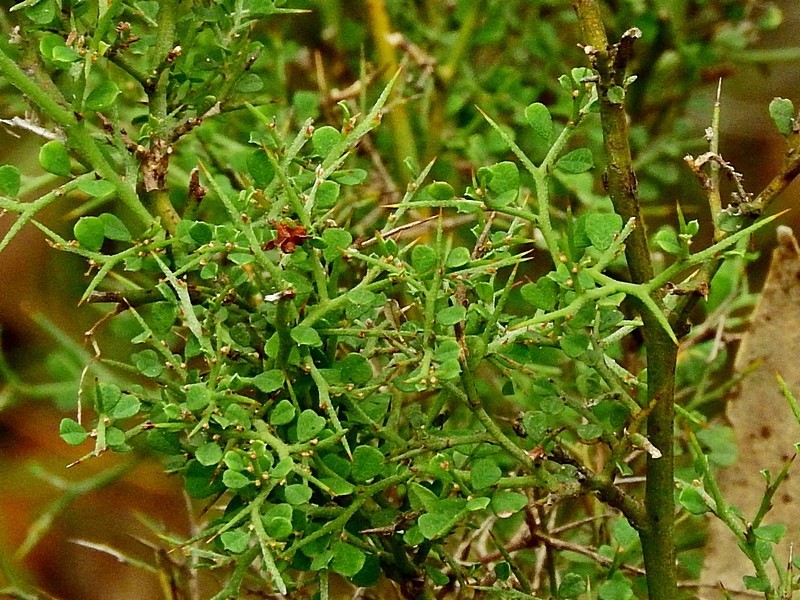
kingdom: Plantae
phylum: Tracheophyta
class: Magnoliopsida
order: Fabales
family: Fabaceae
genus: Bossiaea
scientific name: Bossiaea obcordata
